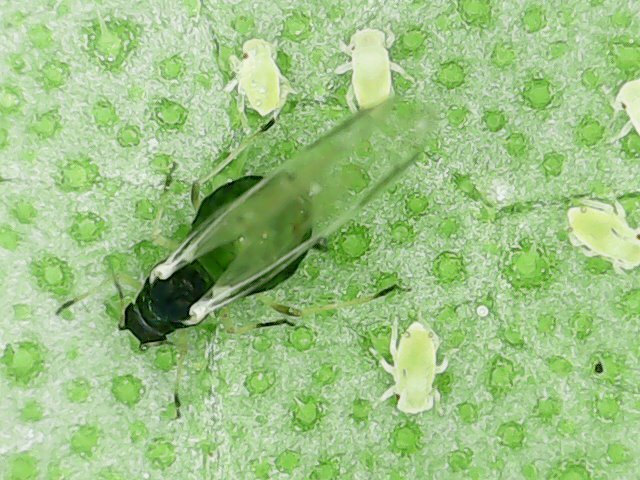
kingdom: Animalia
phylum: Arthropoda
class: Insecta
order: Hemiptera
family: Aphididae
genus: Aphis
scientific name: Aphis gossypii
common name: Melon aphid
